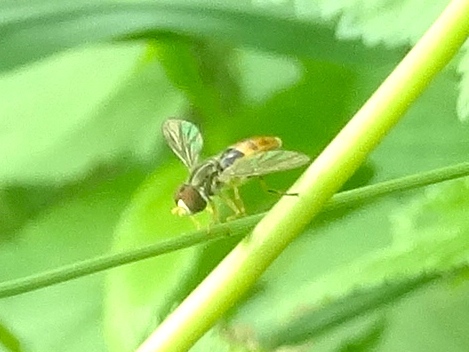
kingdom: Animalia
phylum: Arthropoda
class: Insecta
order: Diptera
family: Syrphidae
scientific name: Syrphidae
